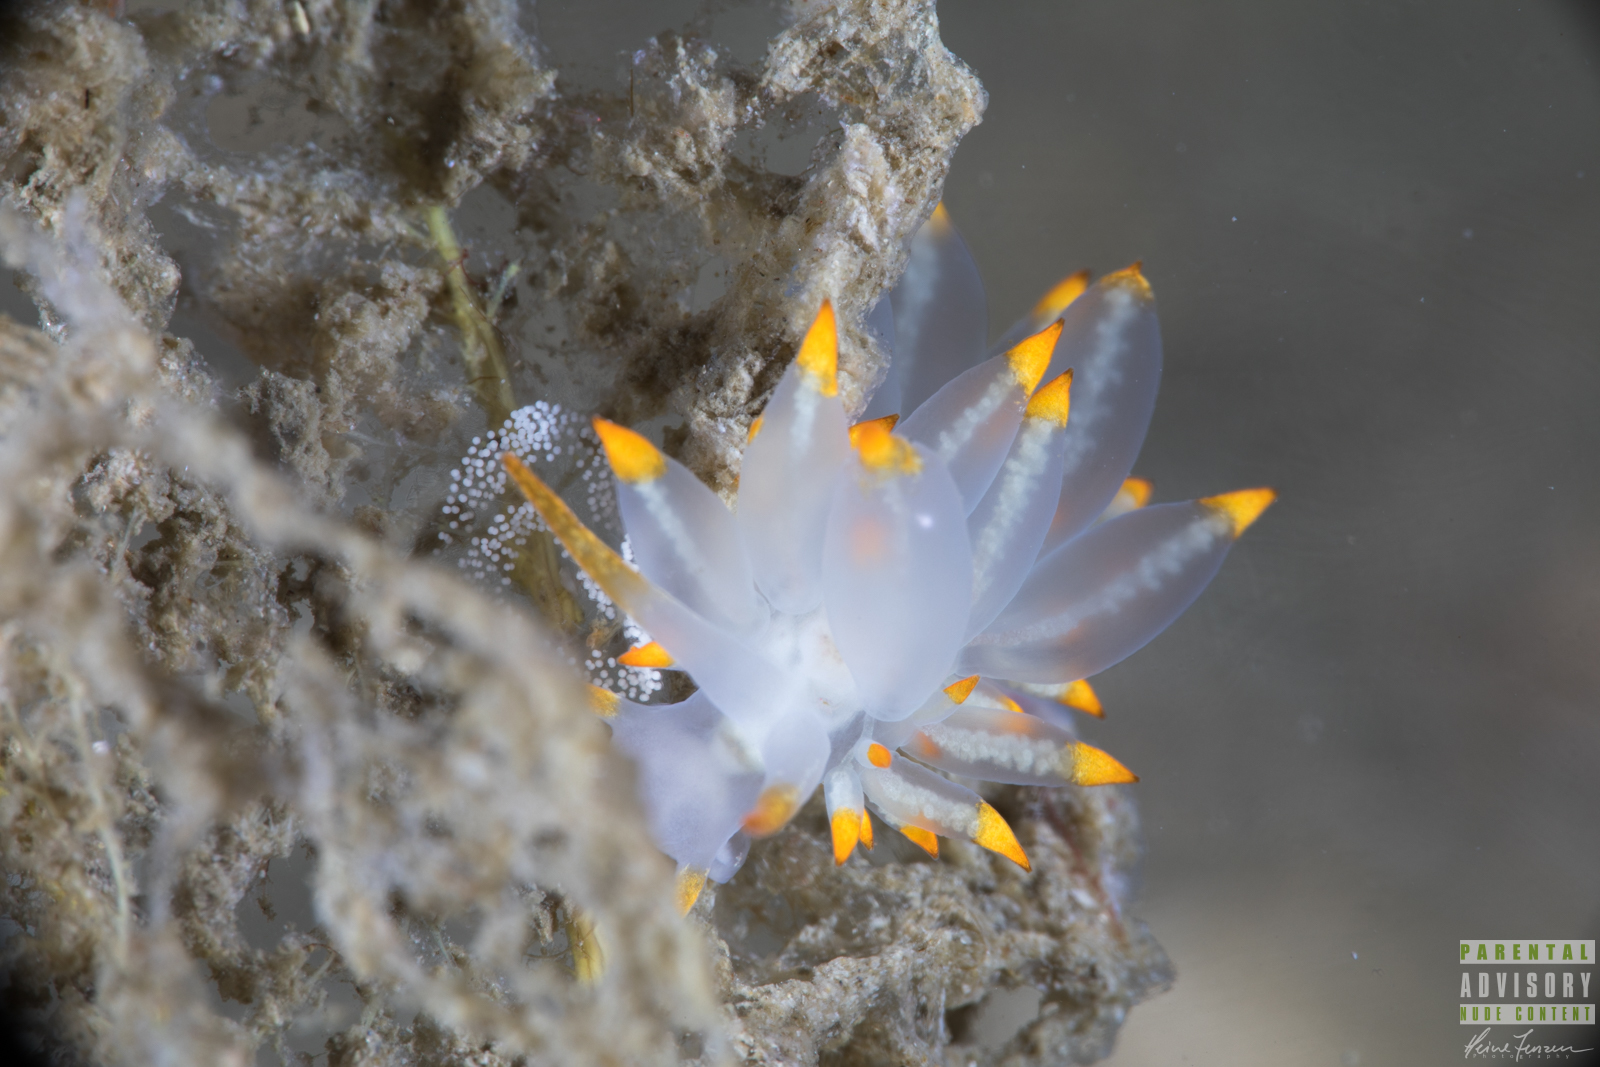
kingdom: Animalia
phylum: Mollusca
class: Gastropoda
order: Nudibranchia
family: Eubranchidae
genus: Amphorina
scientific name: Amphorina farrani
